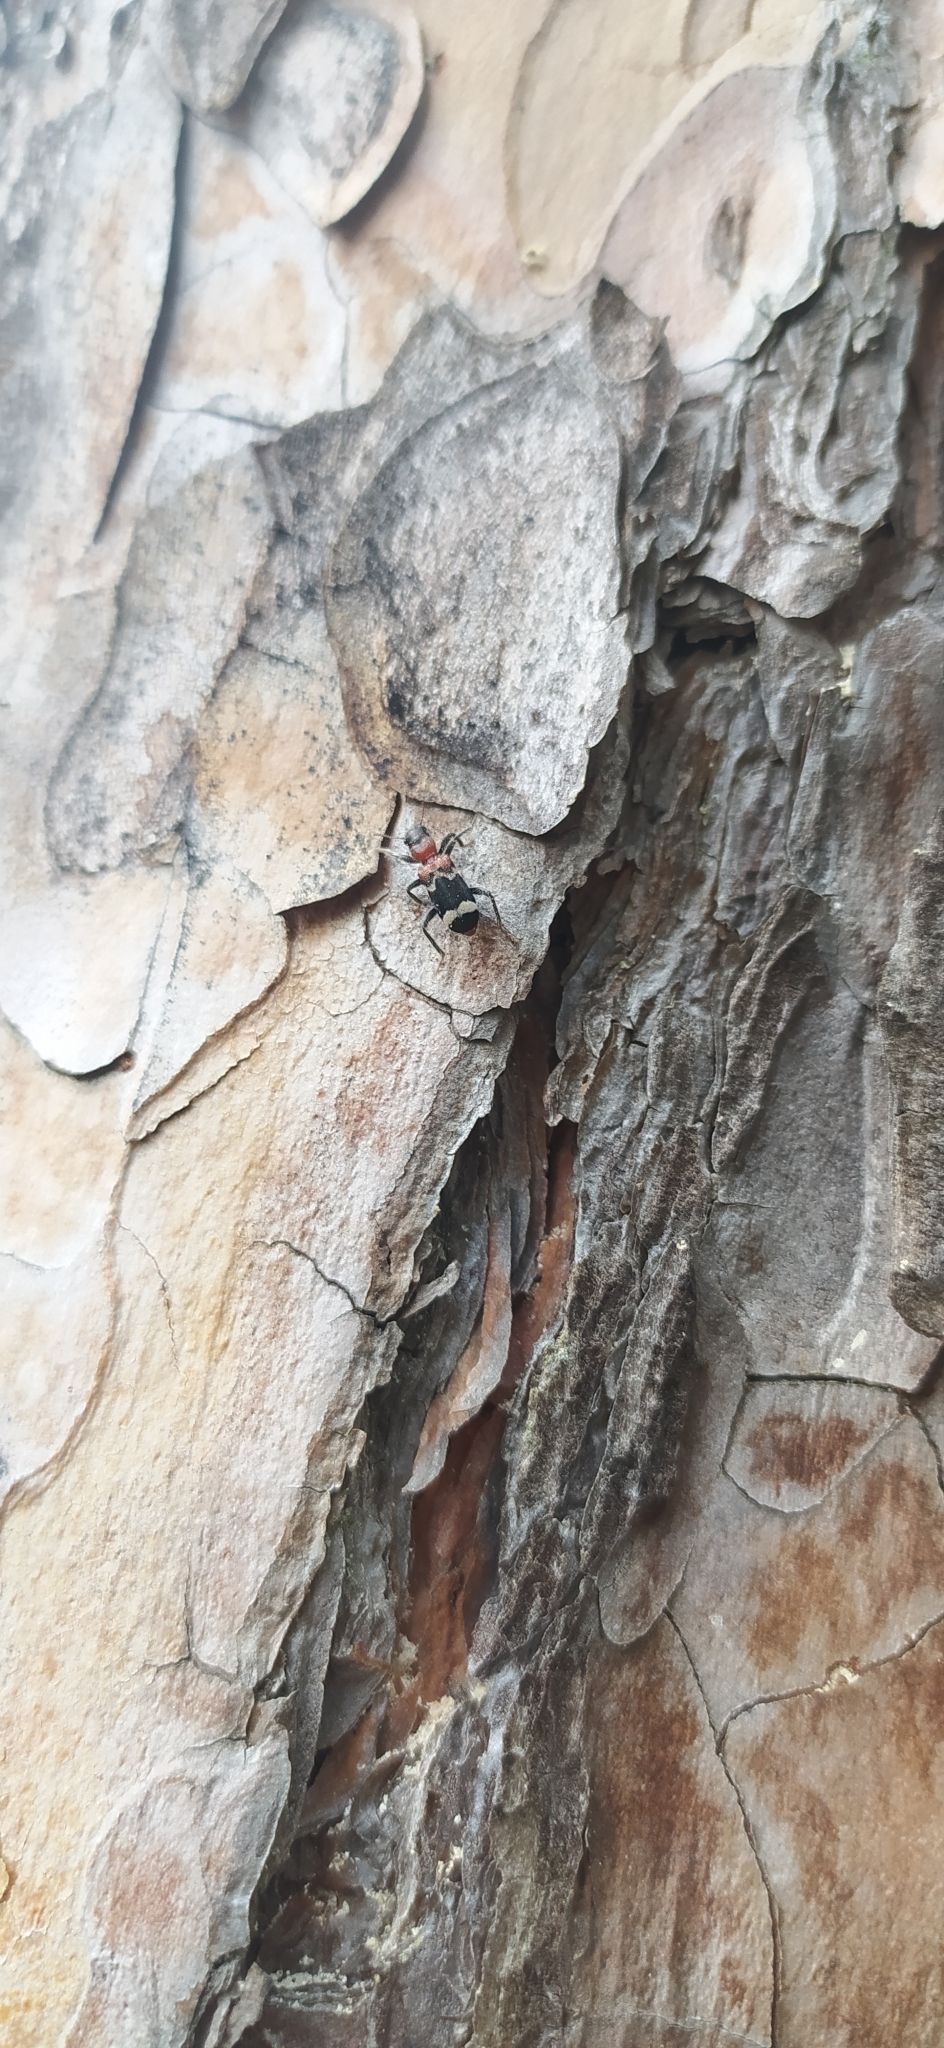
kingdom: Animalia
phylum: Arthropoda
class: Insecta
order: Coleoptera
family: Cleridae
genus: Thanasimus
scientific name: Thanasimus formicarius
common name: Ant beetle
